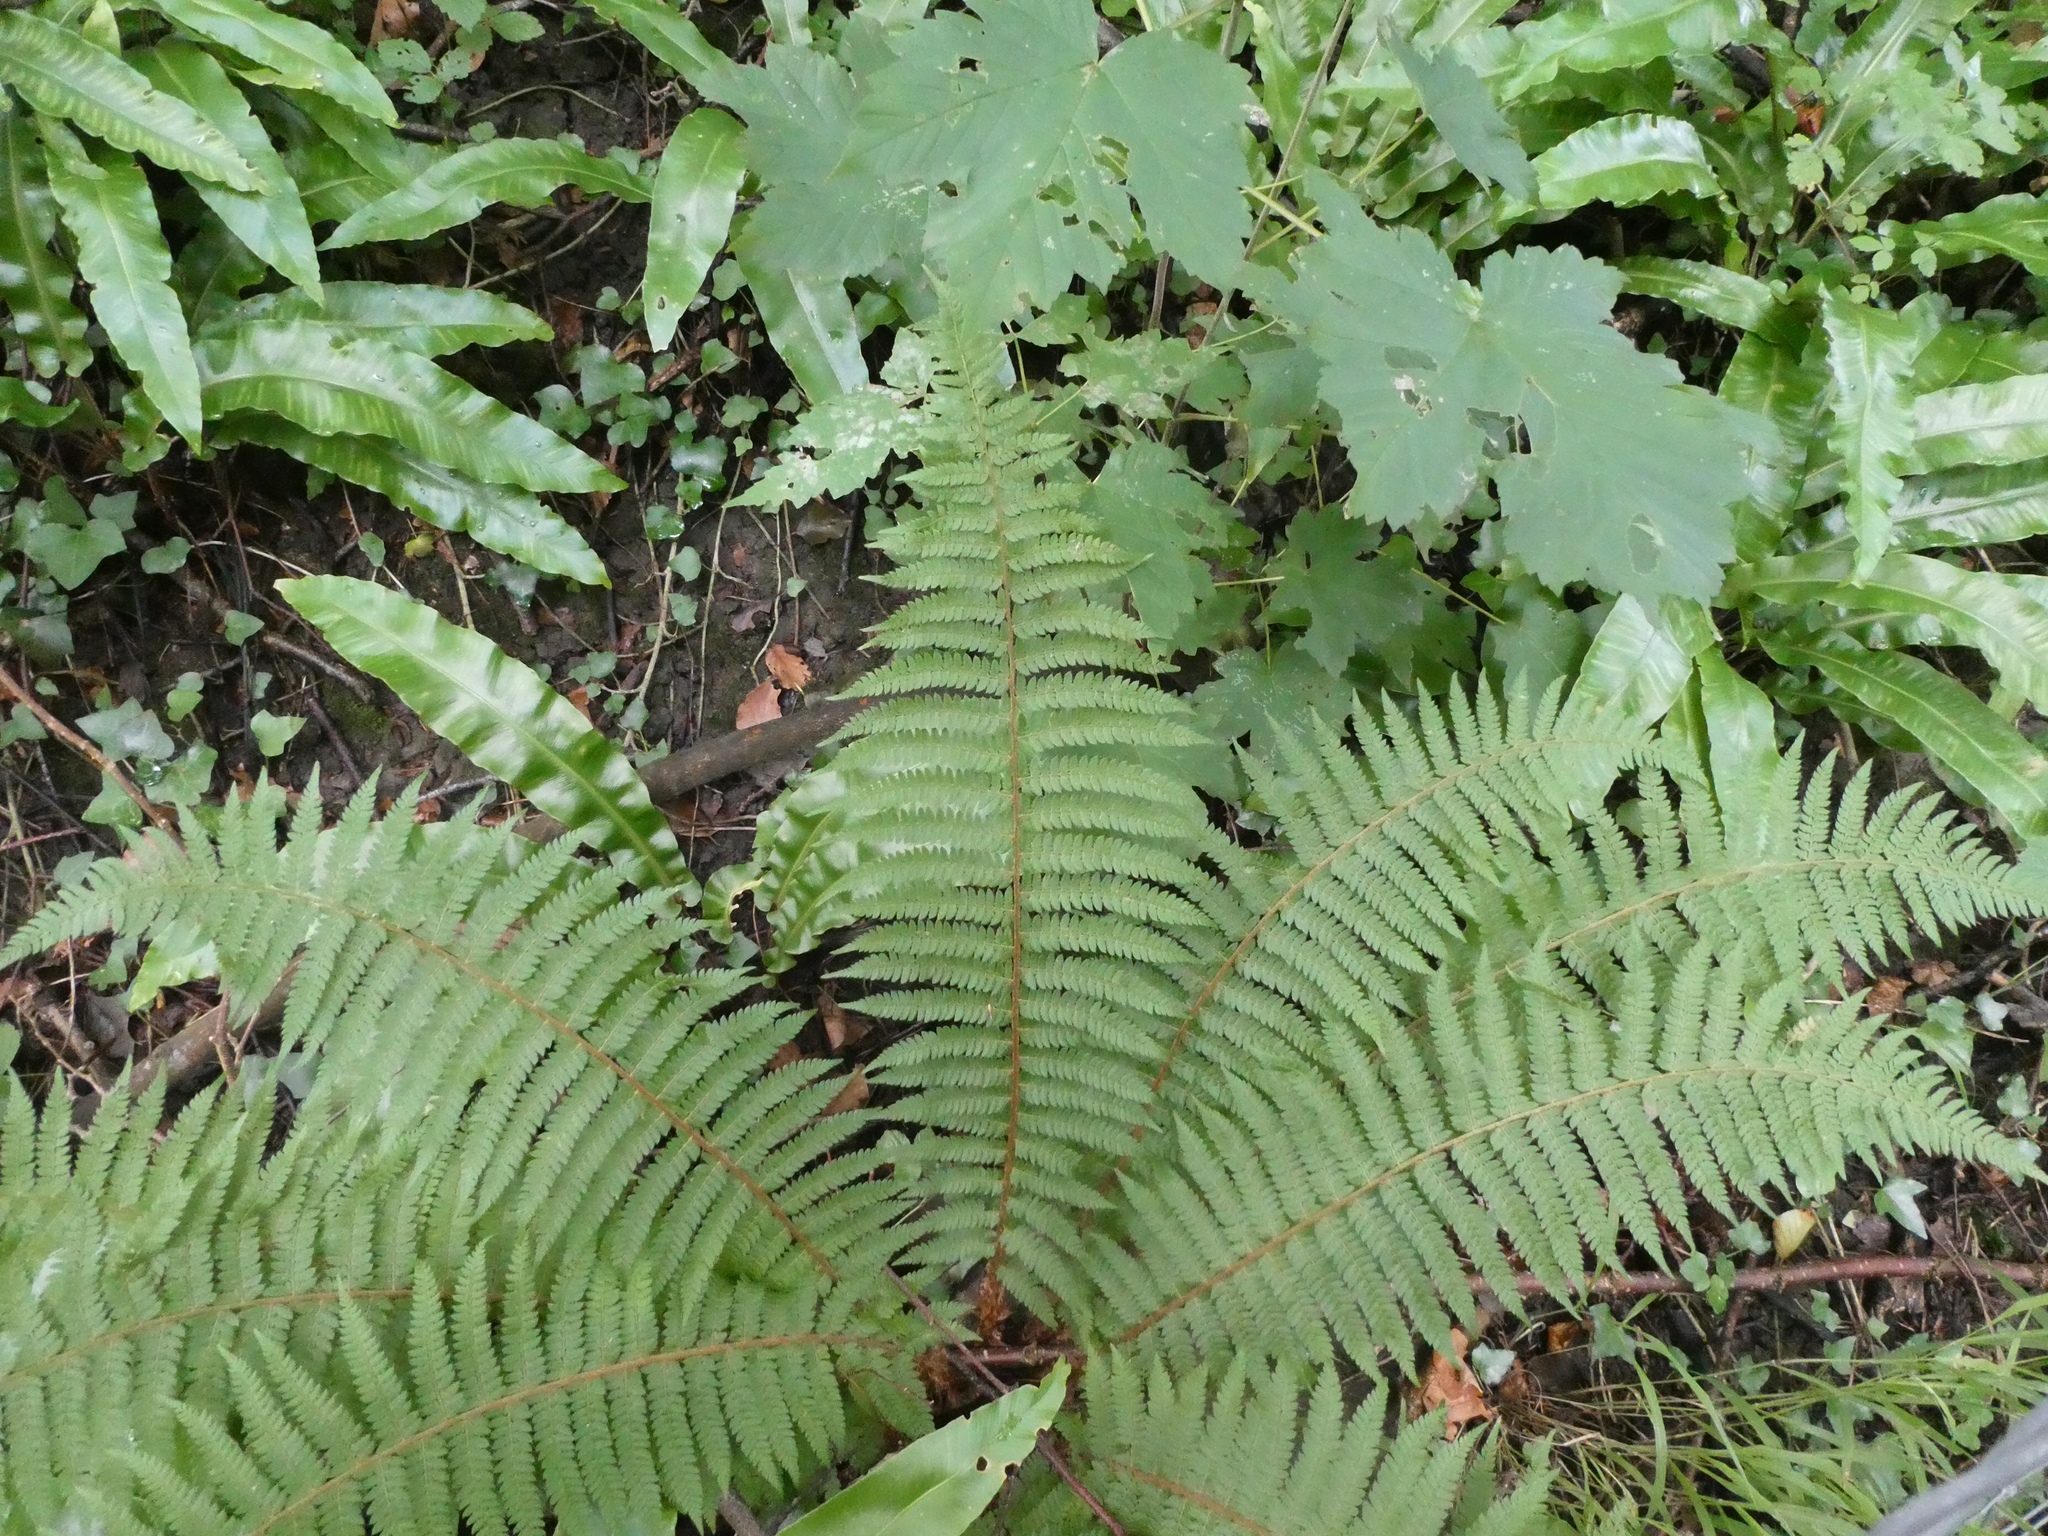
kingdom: Plantae
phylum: Tracheophyta
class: Polypodiopsida
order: Polypodiales
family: Dryopteridaceae
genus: Polystichum
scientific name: Polystichum setiferum
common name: Soft shield-fern
